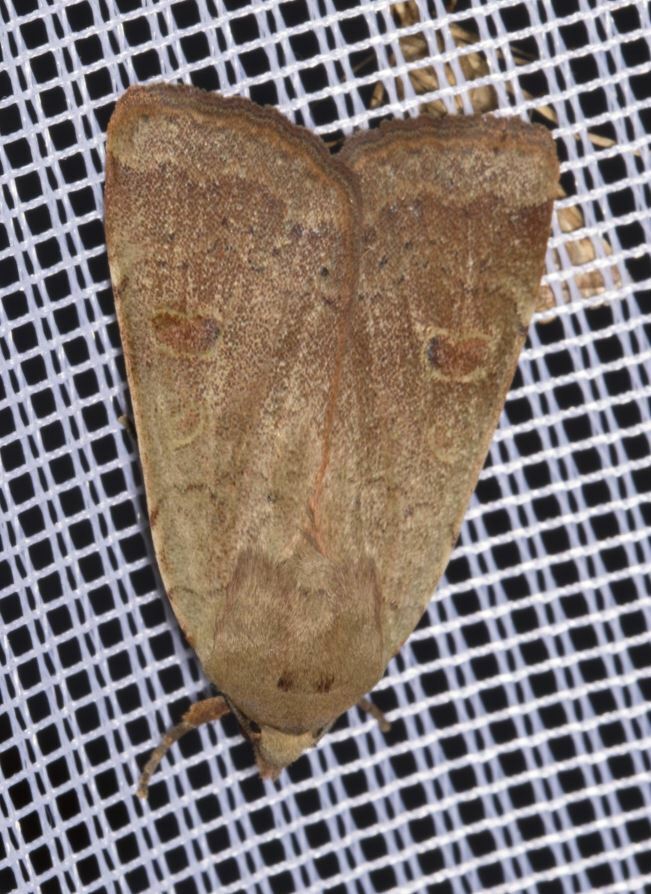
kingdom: Animalia
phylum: Arthropoda
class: Insecta
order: Lepidoptera
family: Noctuidae
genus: Noctua
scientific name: Noctua comes
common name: Lesser yellow underwing
